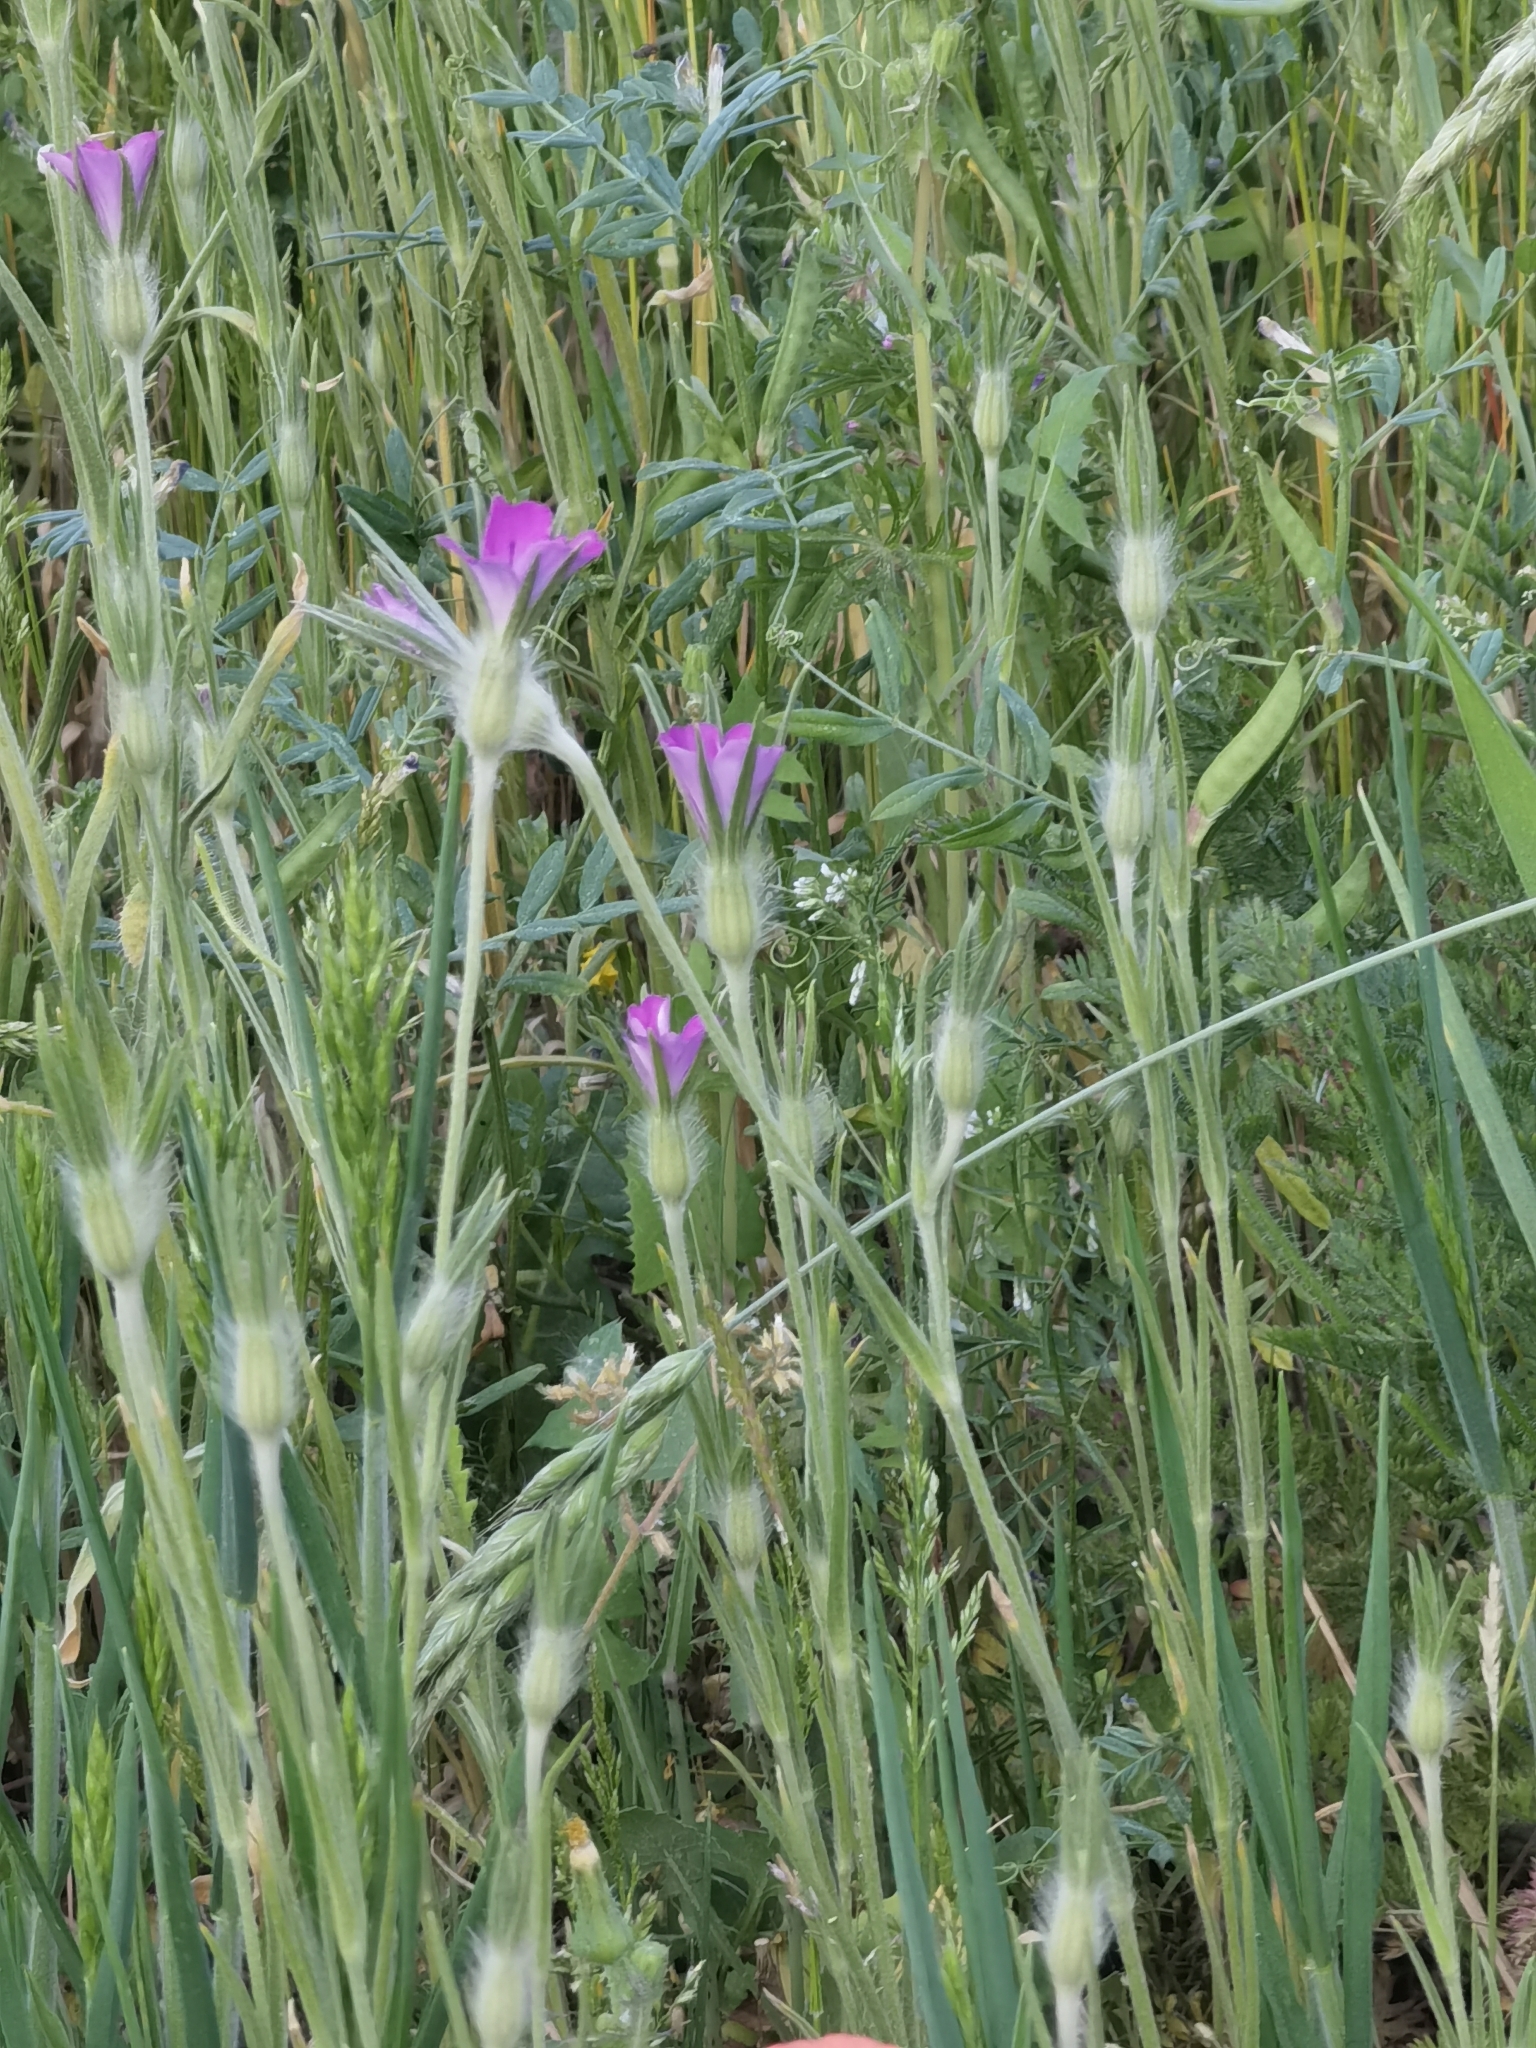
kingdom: Plantae
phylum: Tracheophyta
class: Magnoliopsida
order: Caryophyllales
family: Caryophyllaceae
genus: Agrostemma
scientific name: Agrostemma githago
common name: Common corncockle
